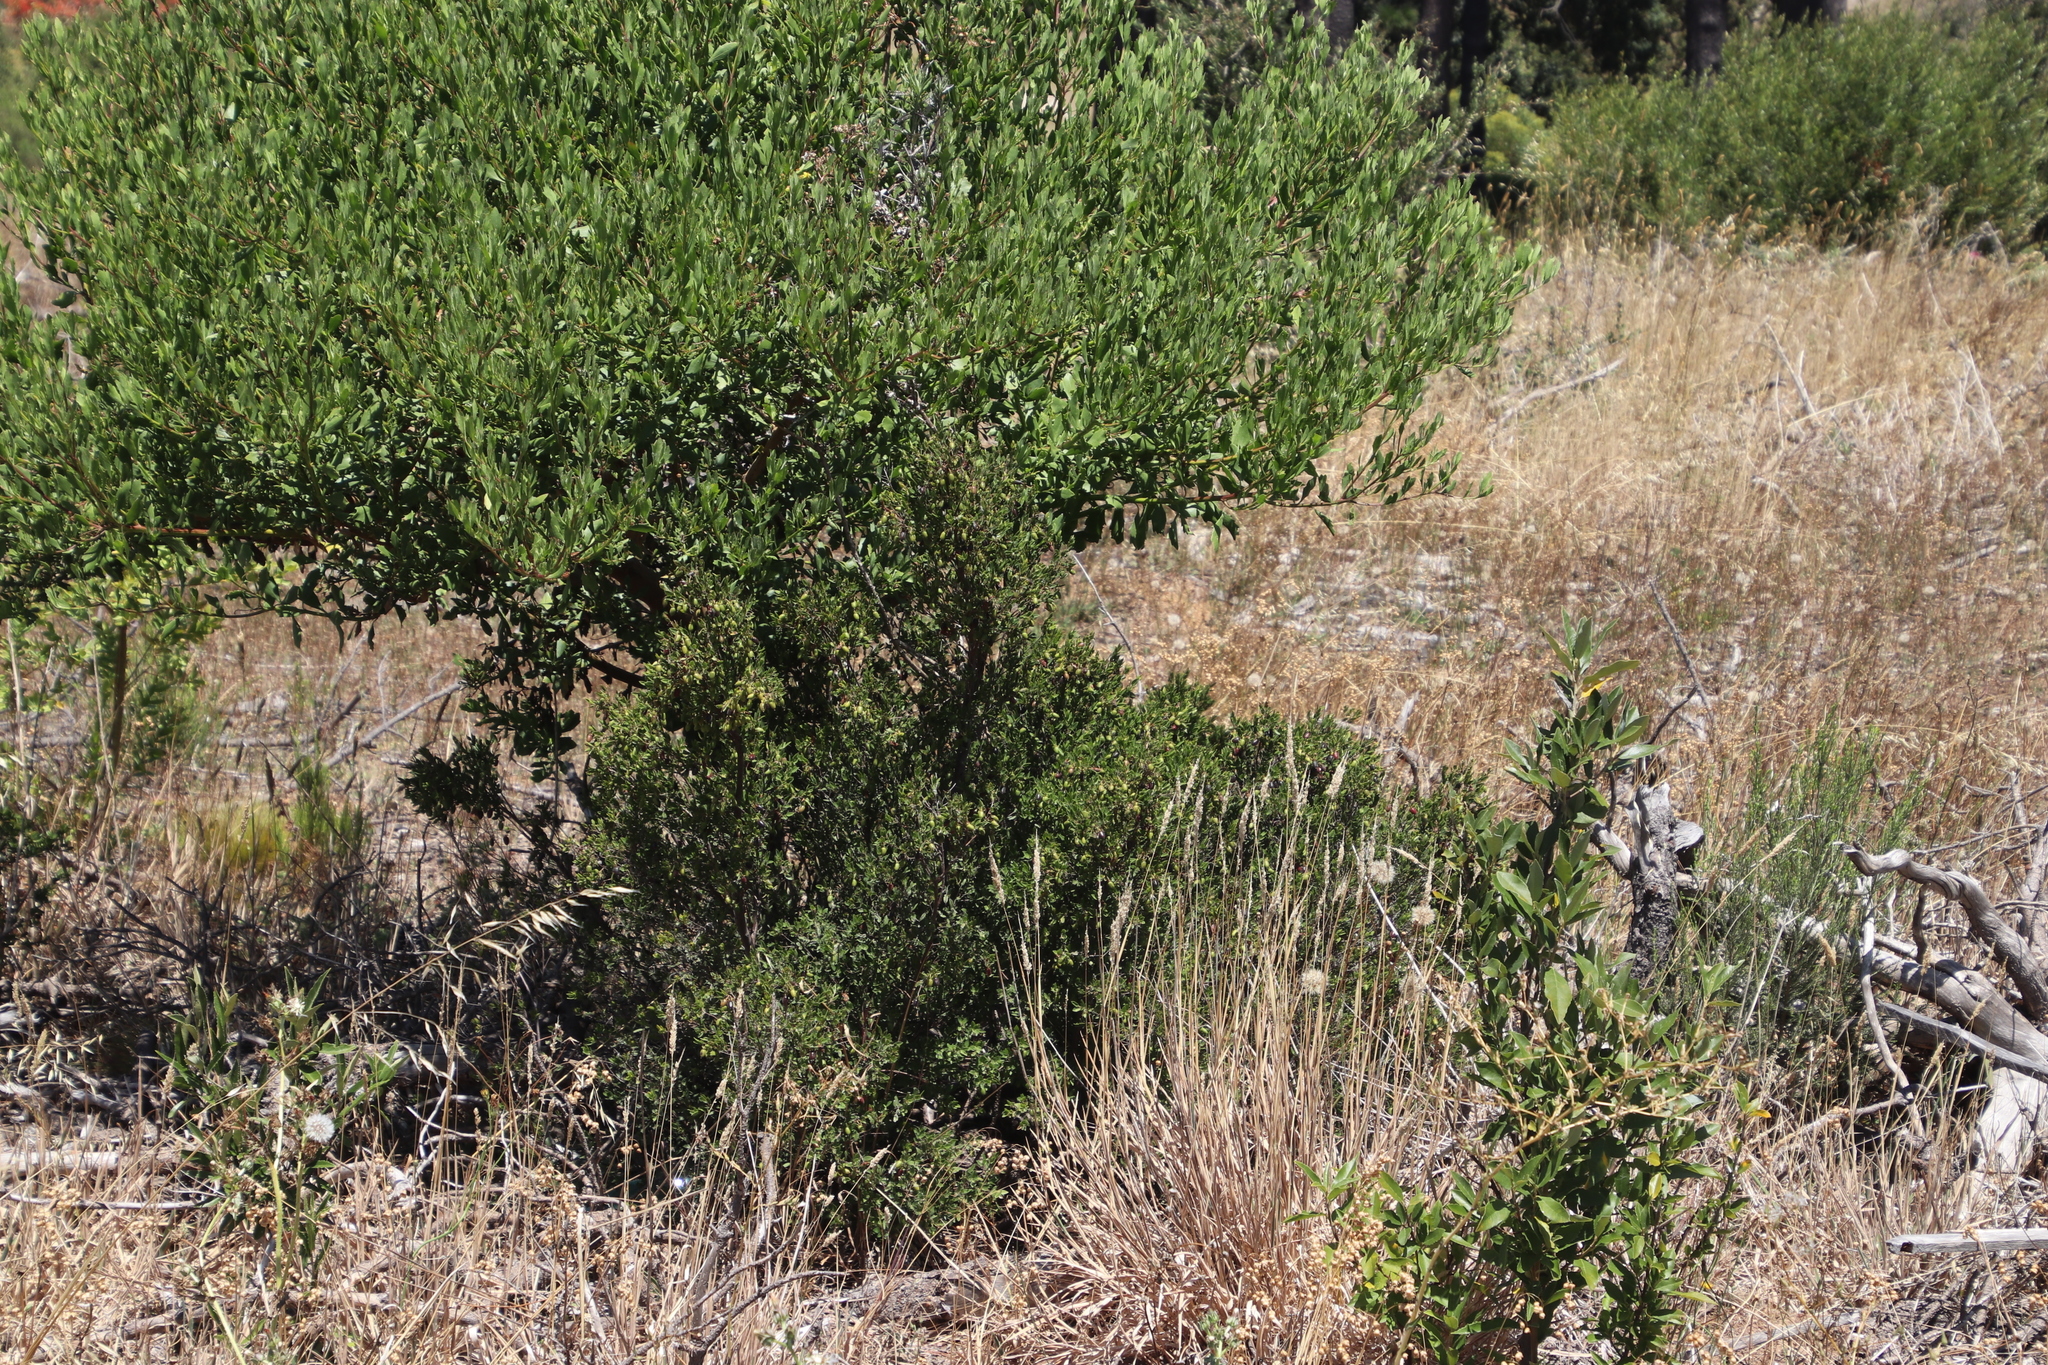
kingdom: Plantae
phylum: Tracheophyta
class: Magnoliopsida
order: Ericales
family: Ebenaceae
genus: Diospyros
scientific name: Diospyros glabra
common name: Fynbos star apple
